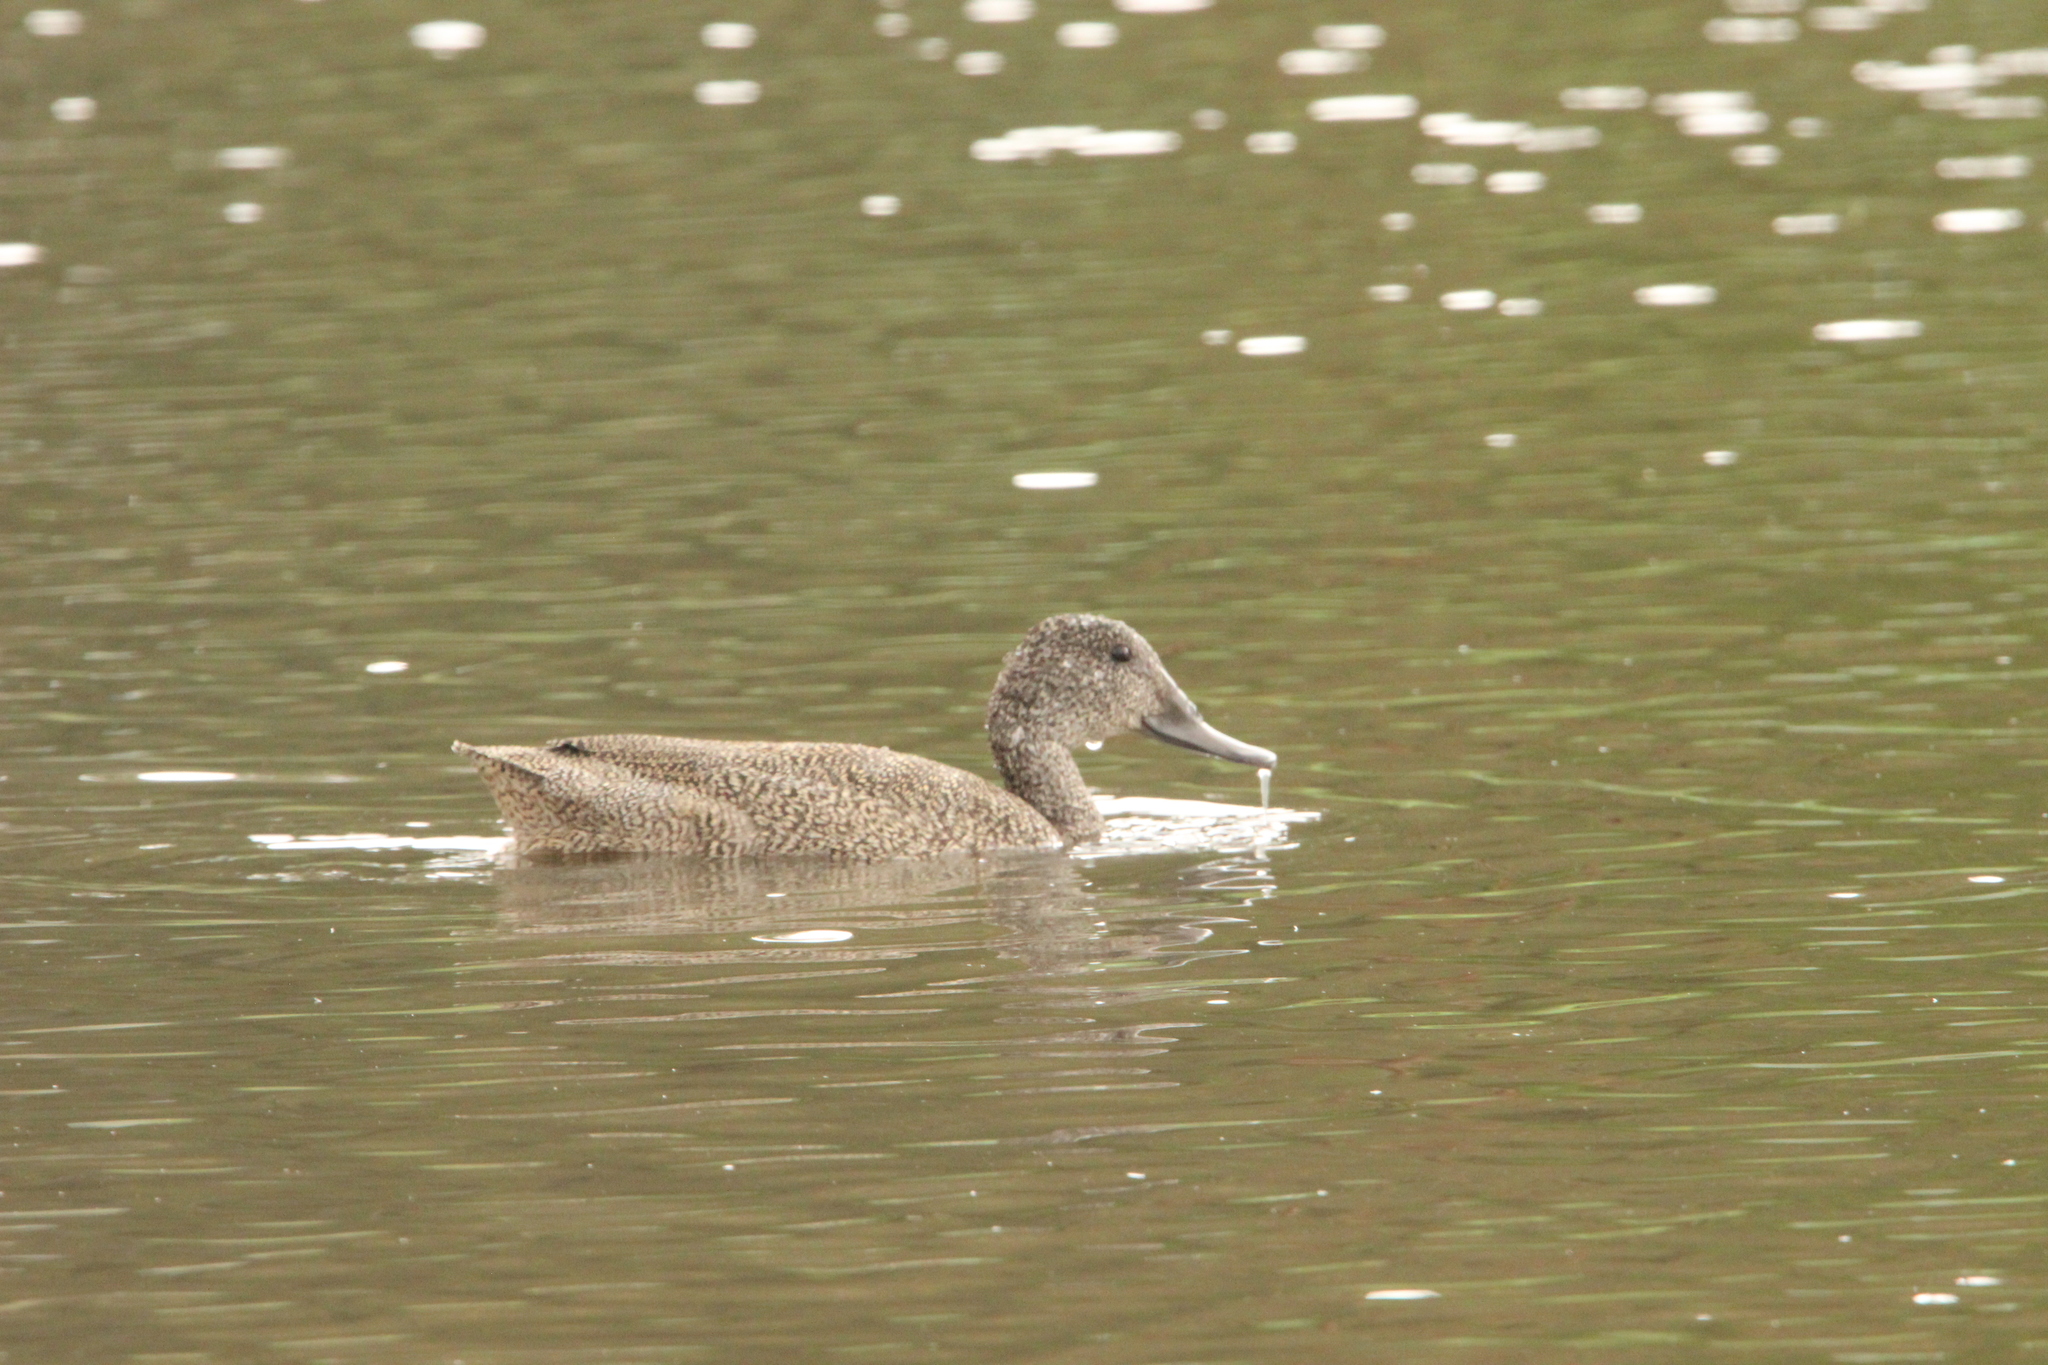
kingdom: Animalia
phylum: Chordata
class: Aves
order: Anseriformes
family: Anatidae
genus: Stictonetta
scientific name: Stictonetta naevosa
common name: Freckled duck
